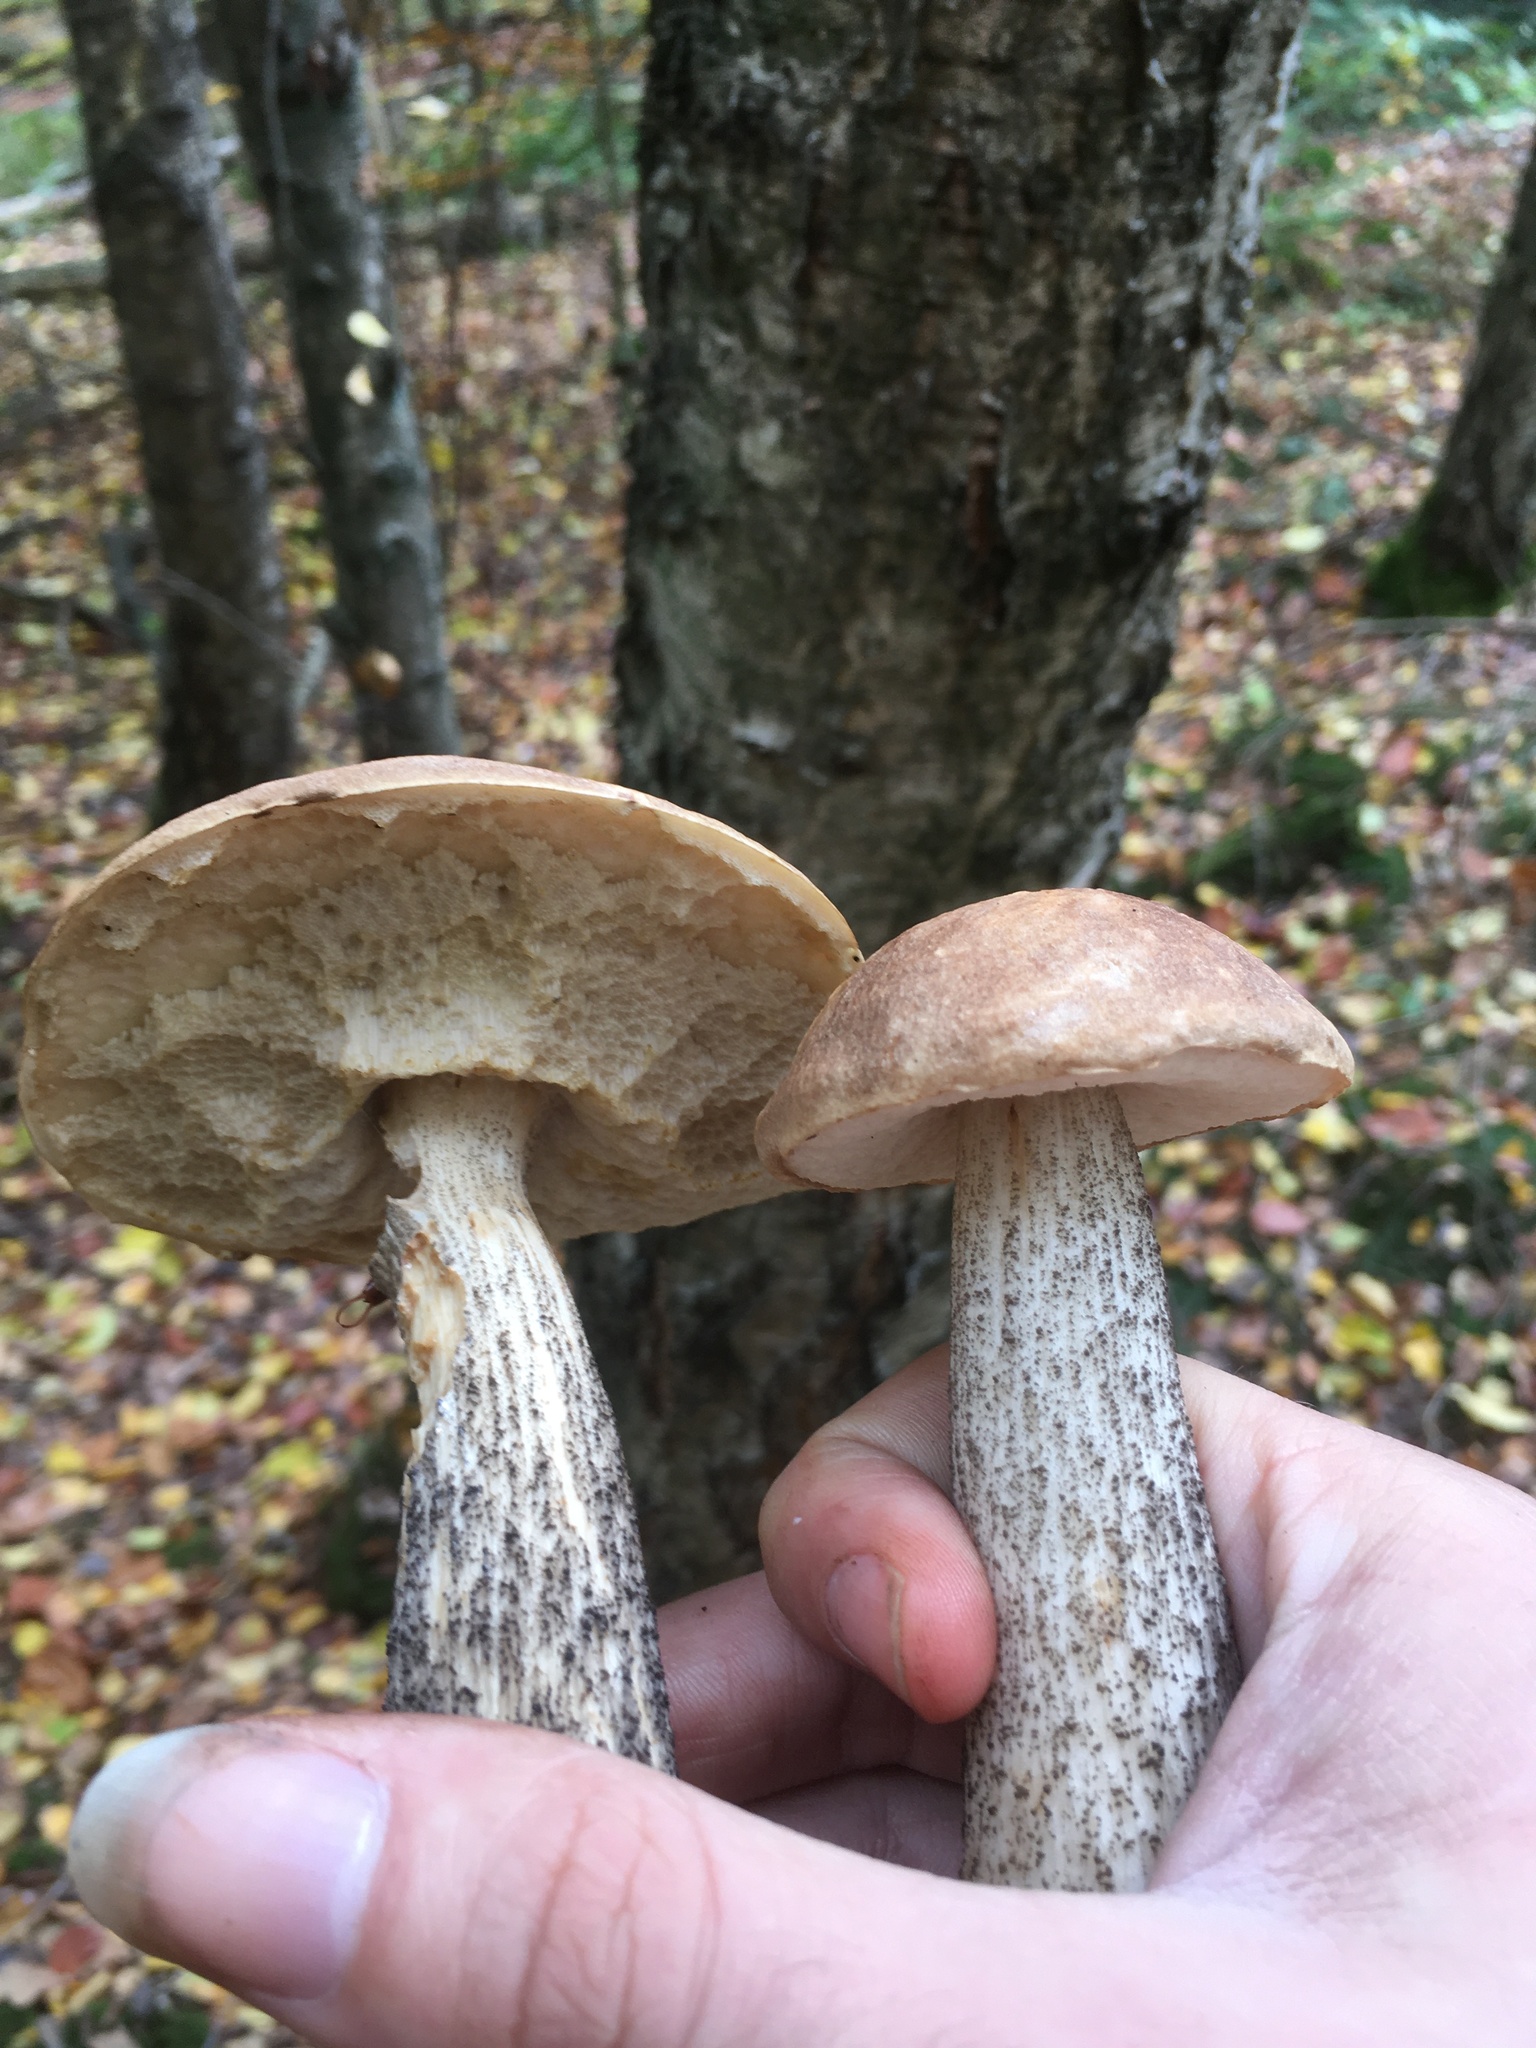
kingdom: Fungi
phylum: Basidiomycota
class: Agaricomycetes
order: Boletales
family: Boletaceae
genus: Leccinum
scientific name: Leccinum scabrum
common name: Blushing bolete
